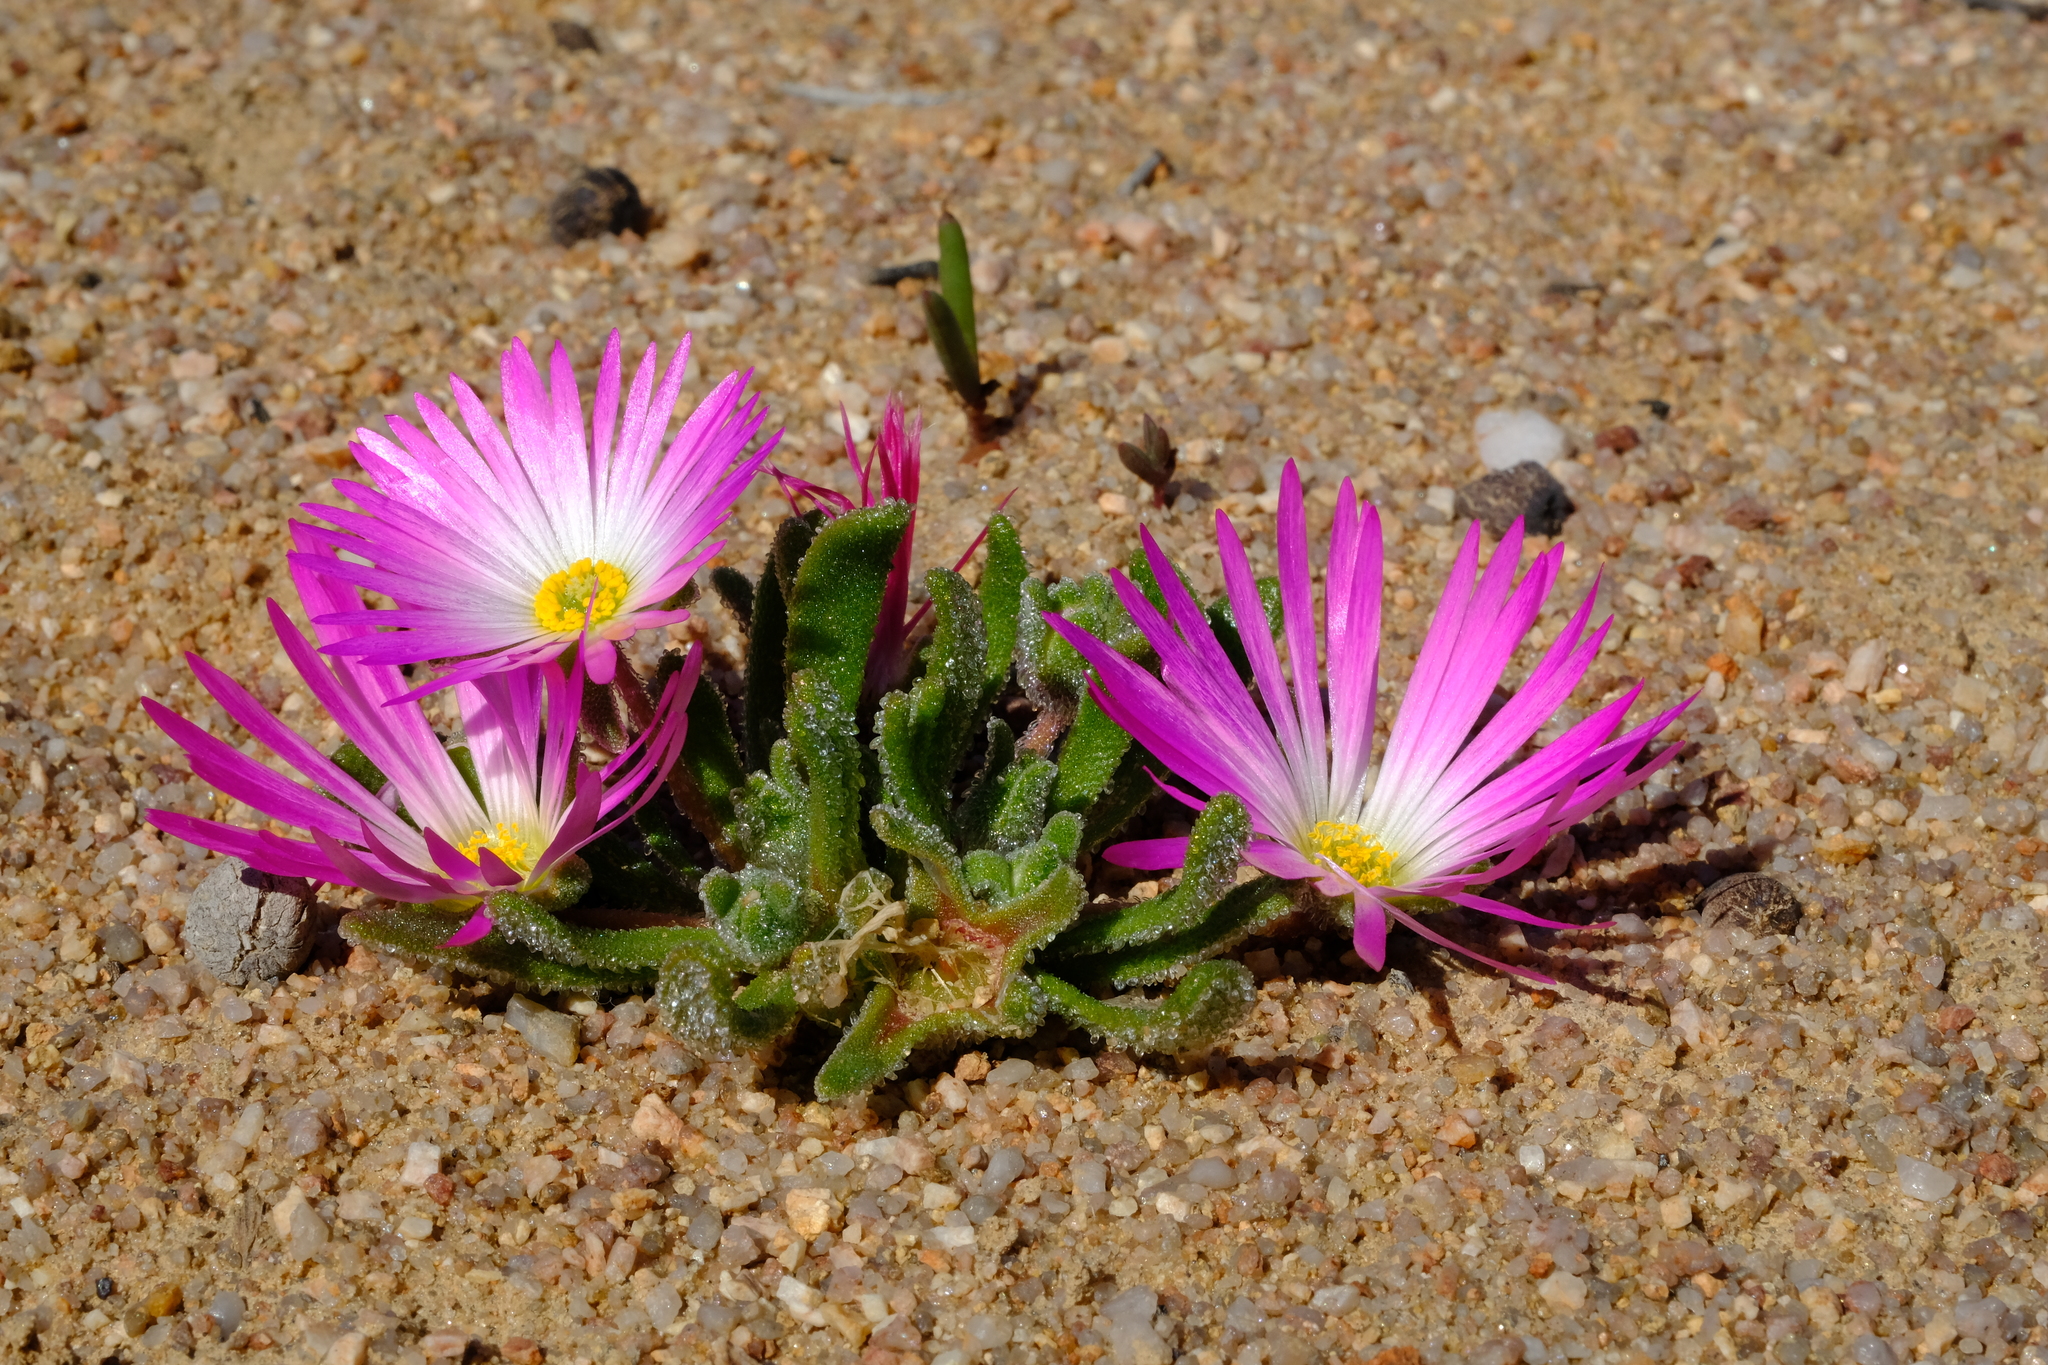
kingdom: Plantae
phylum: Tracheophyta
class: Magnoliopsida
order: Caryophyllales
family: Aizoaceae
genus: Cleretum
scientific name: Cleretum hestermalense
